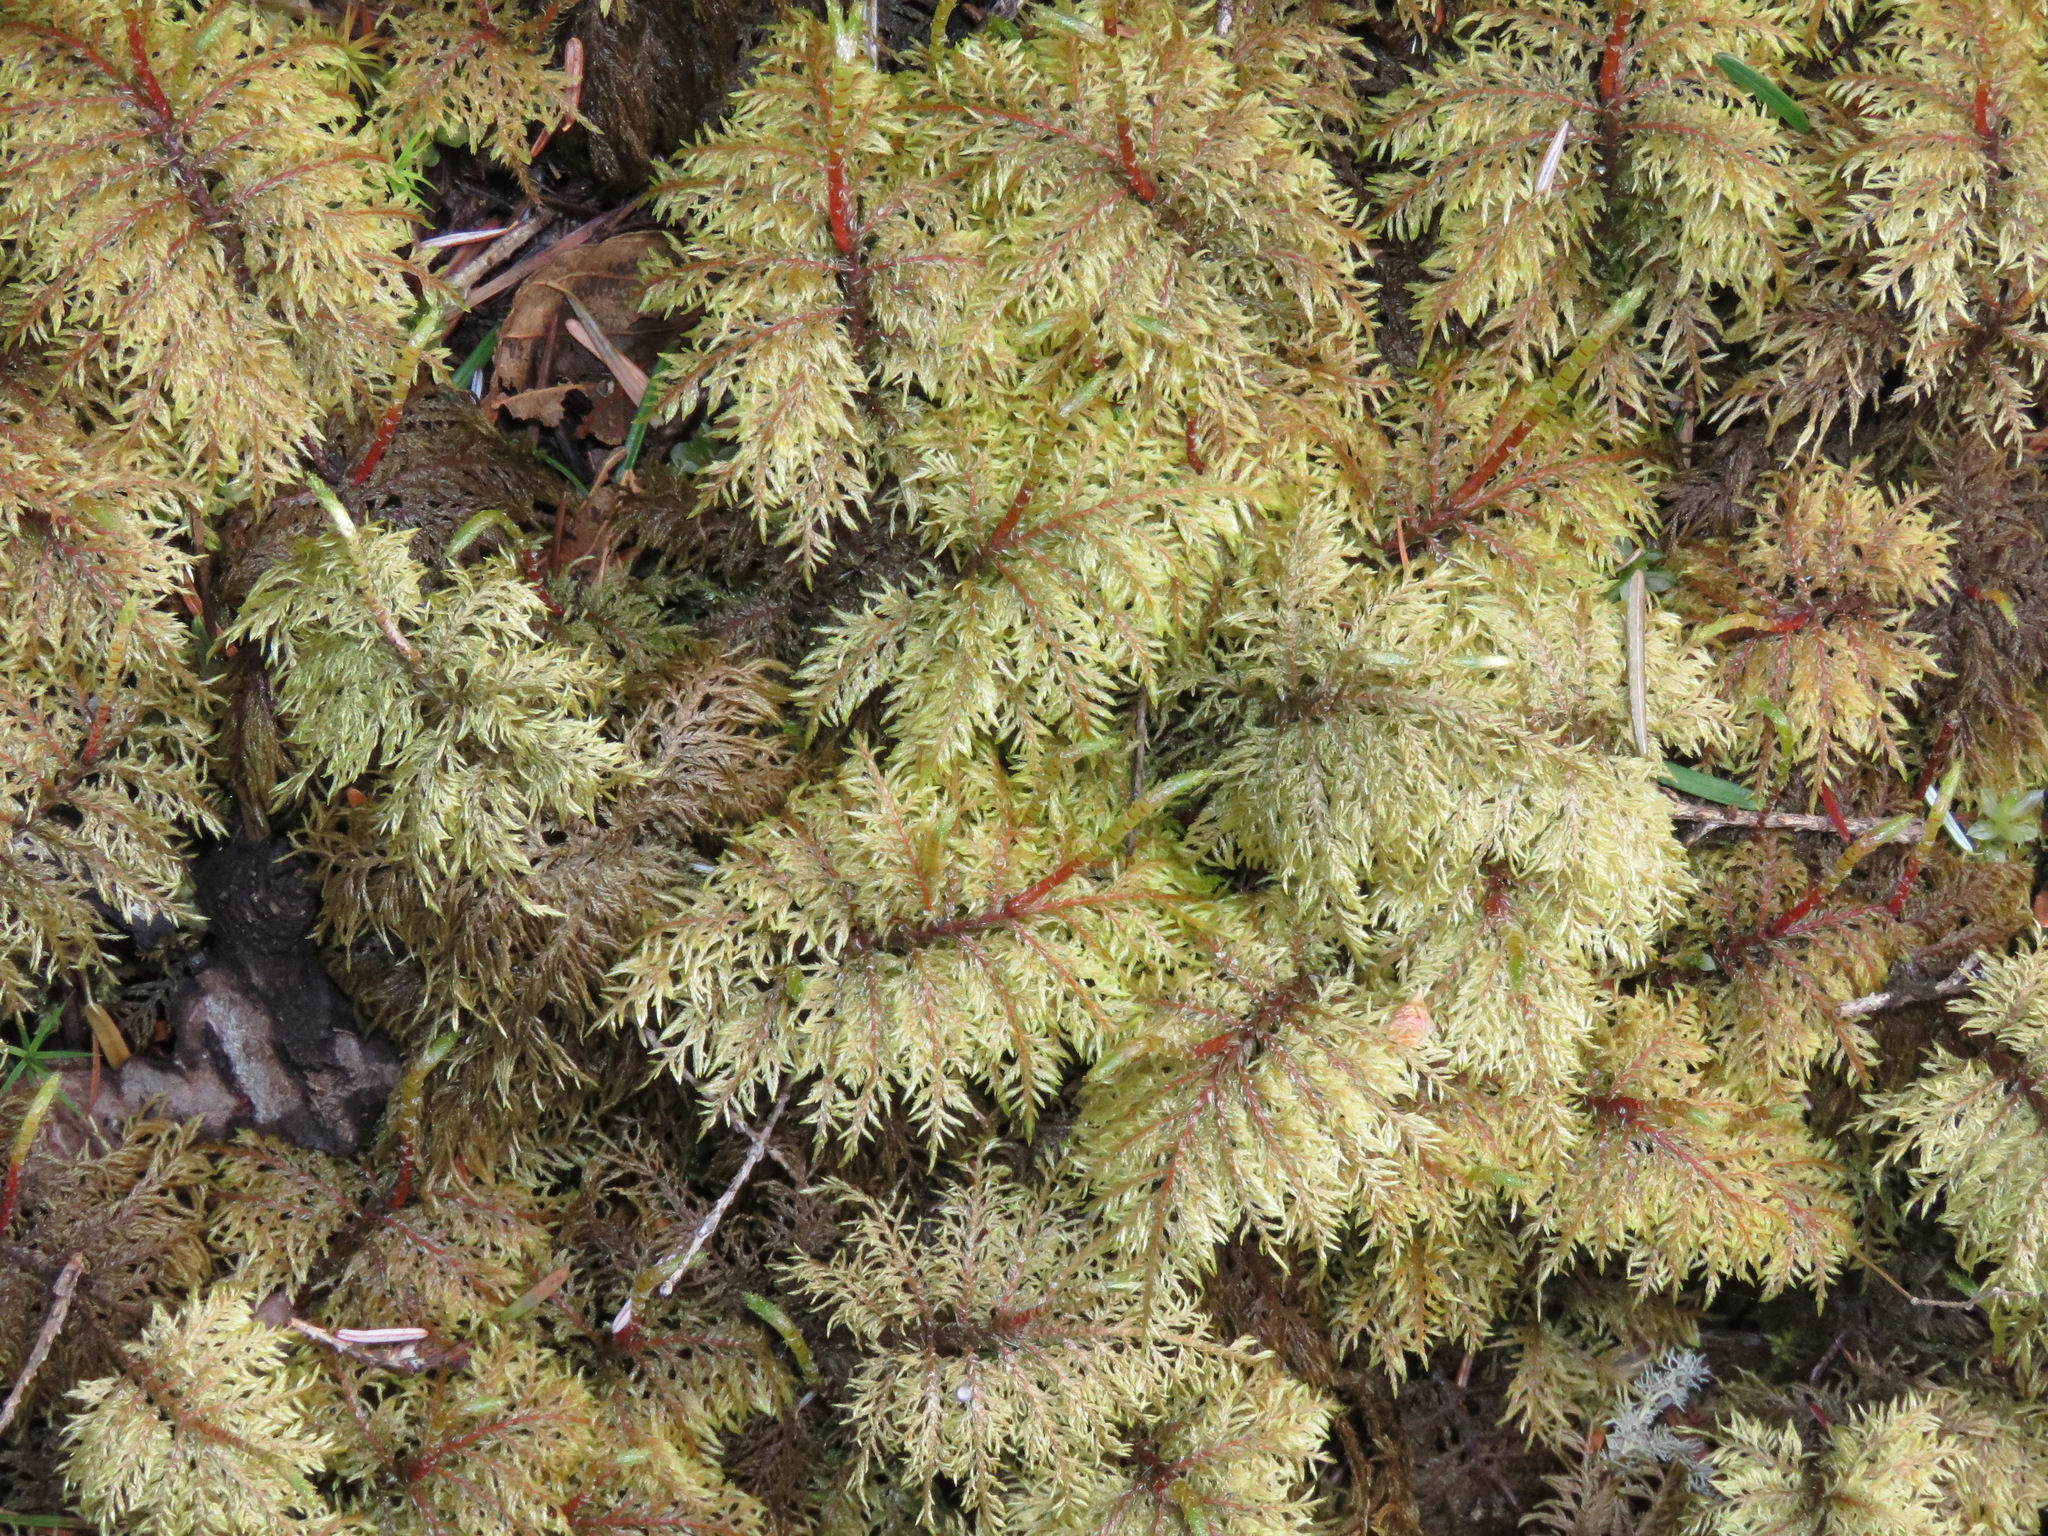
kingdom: Plantae
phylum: Bryophyta
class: Bryopsida
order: Hypnales
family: Hylocomiaceae
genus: Hylocomium
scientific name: Hylocomium splendens
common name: Stairstep moss
